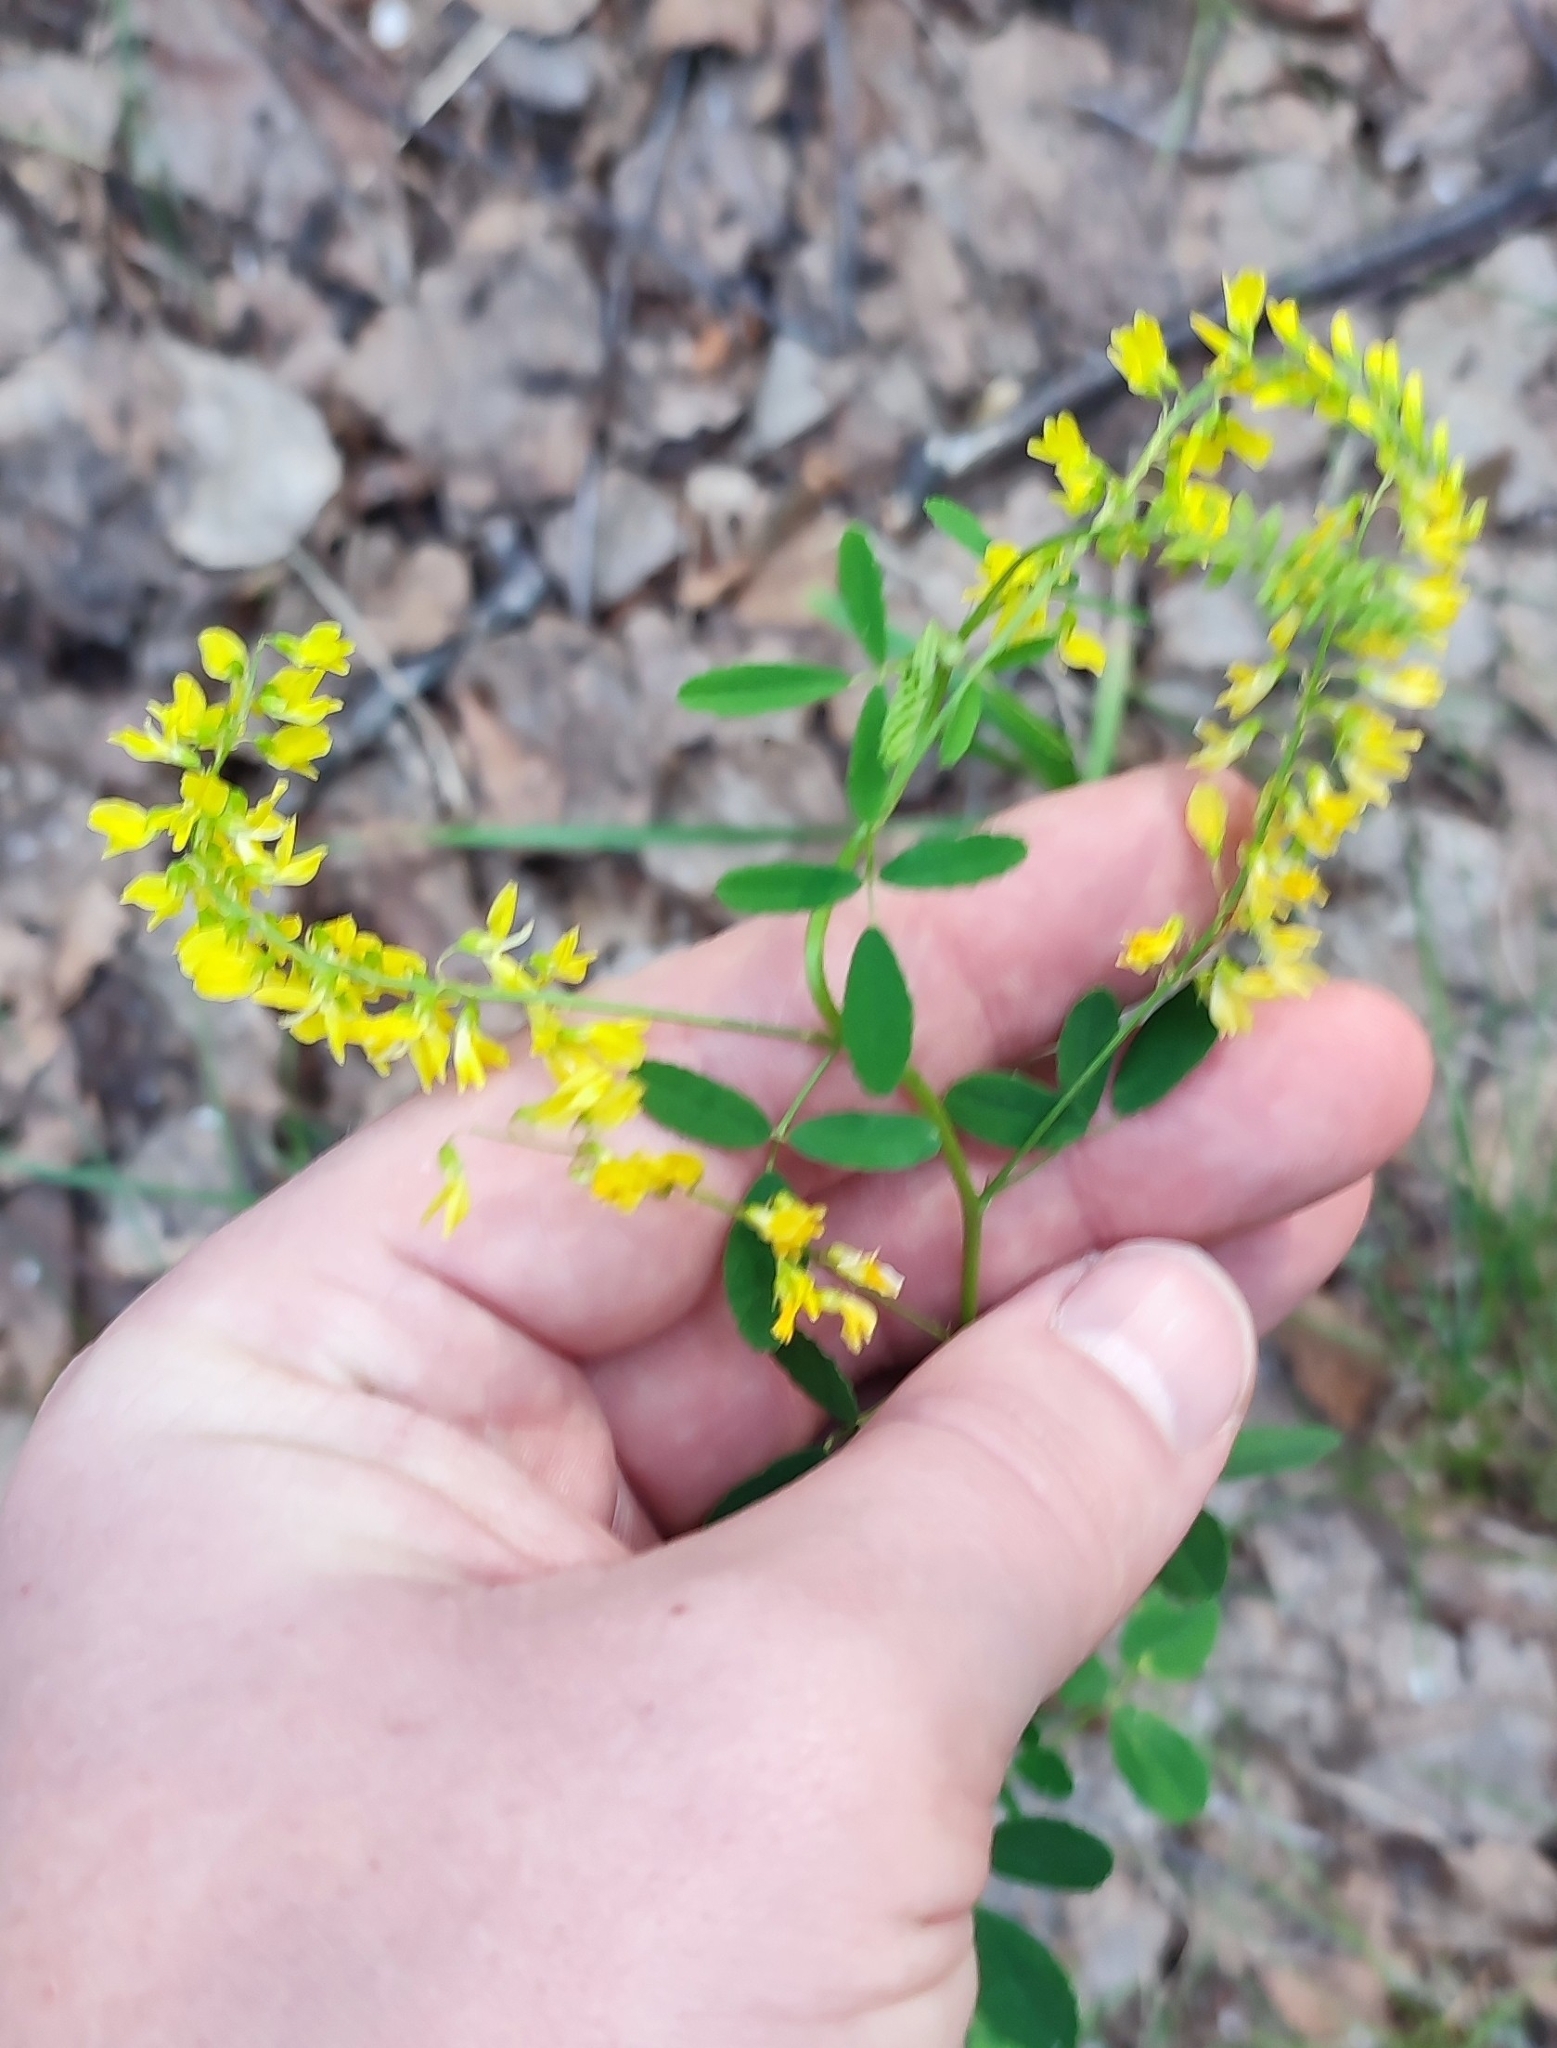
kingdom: Plantae
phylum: Tracheophyta
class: Magnoliopsida
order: Fabales
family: Fabaceae
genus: Melilotus
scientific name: Melilotus officinalis
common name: Sweetclover
